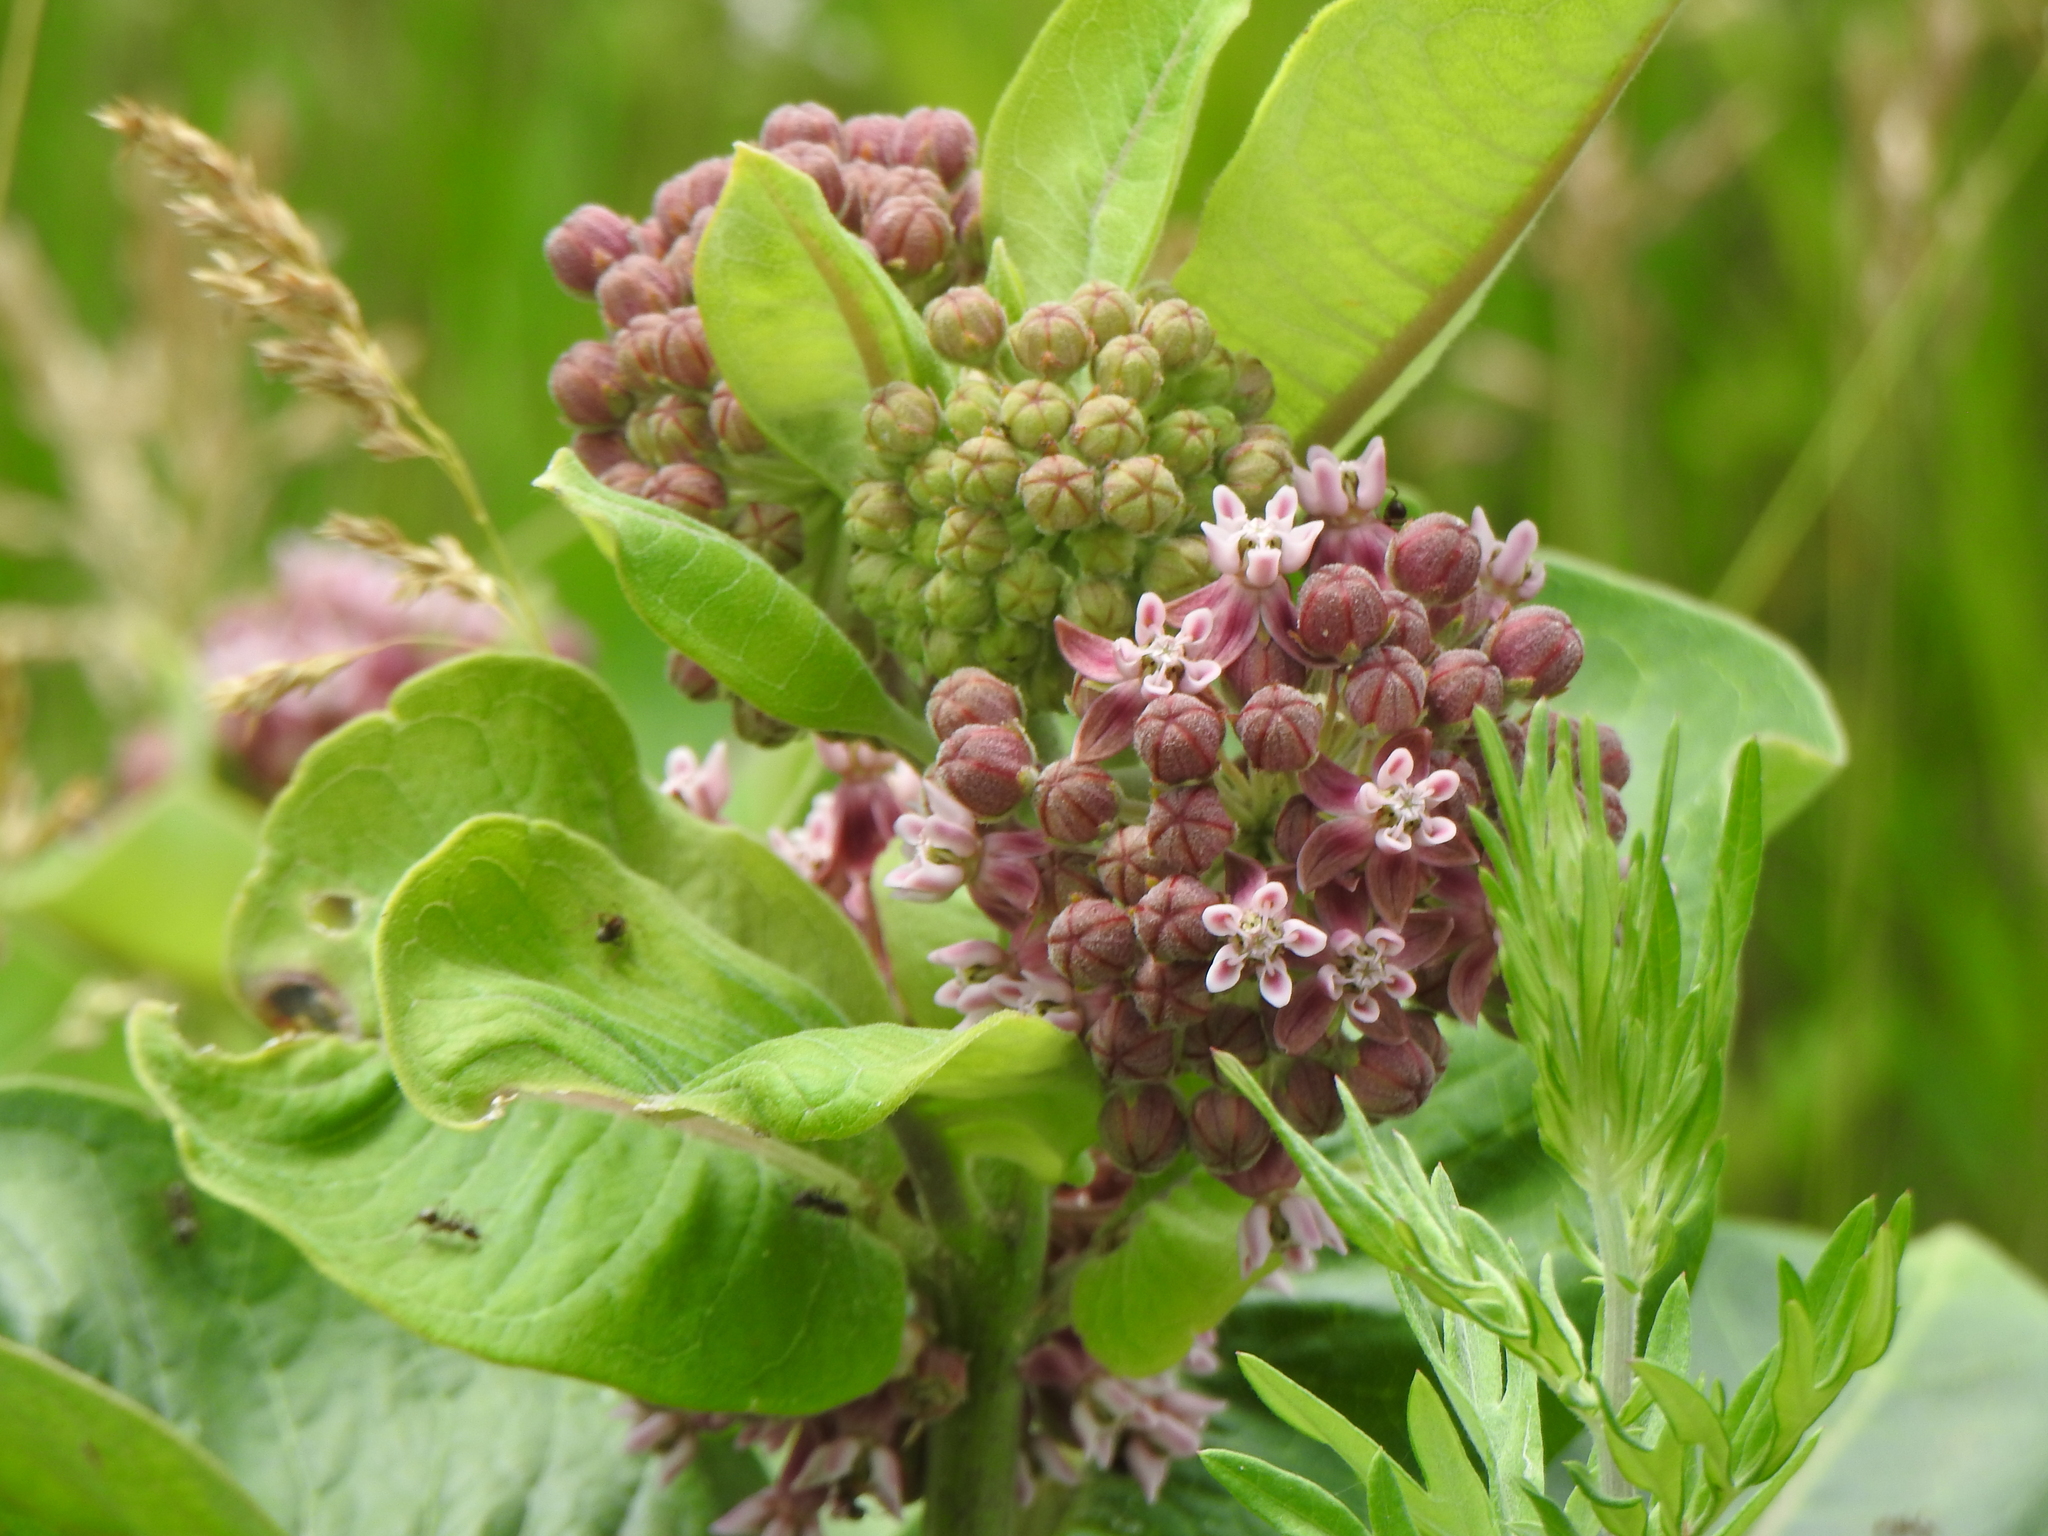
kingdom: Plantae
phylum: Tracheophyta
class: Magnoliopsida
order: Gentianales
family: Apocynaceae
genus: Asclepias
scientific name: Asclepias syriaca
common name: Common milkweed
